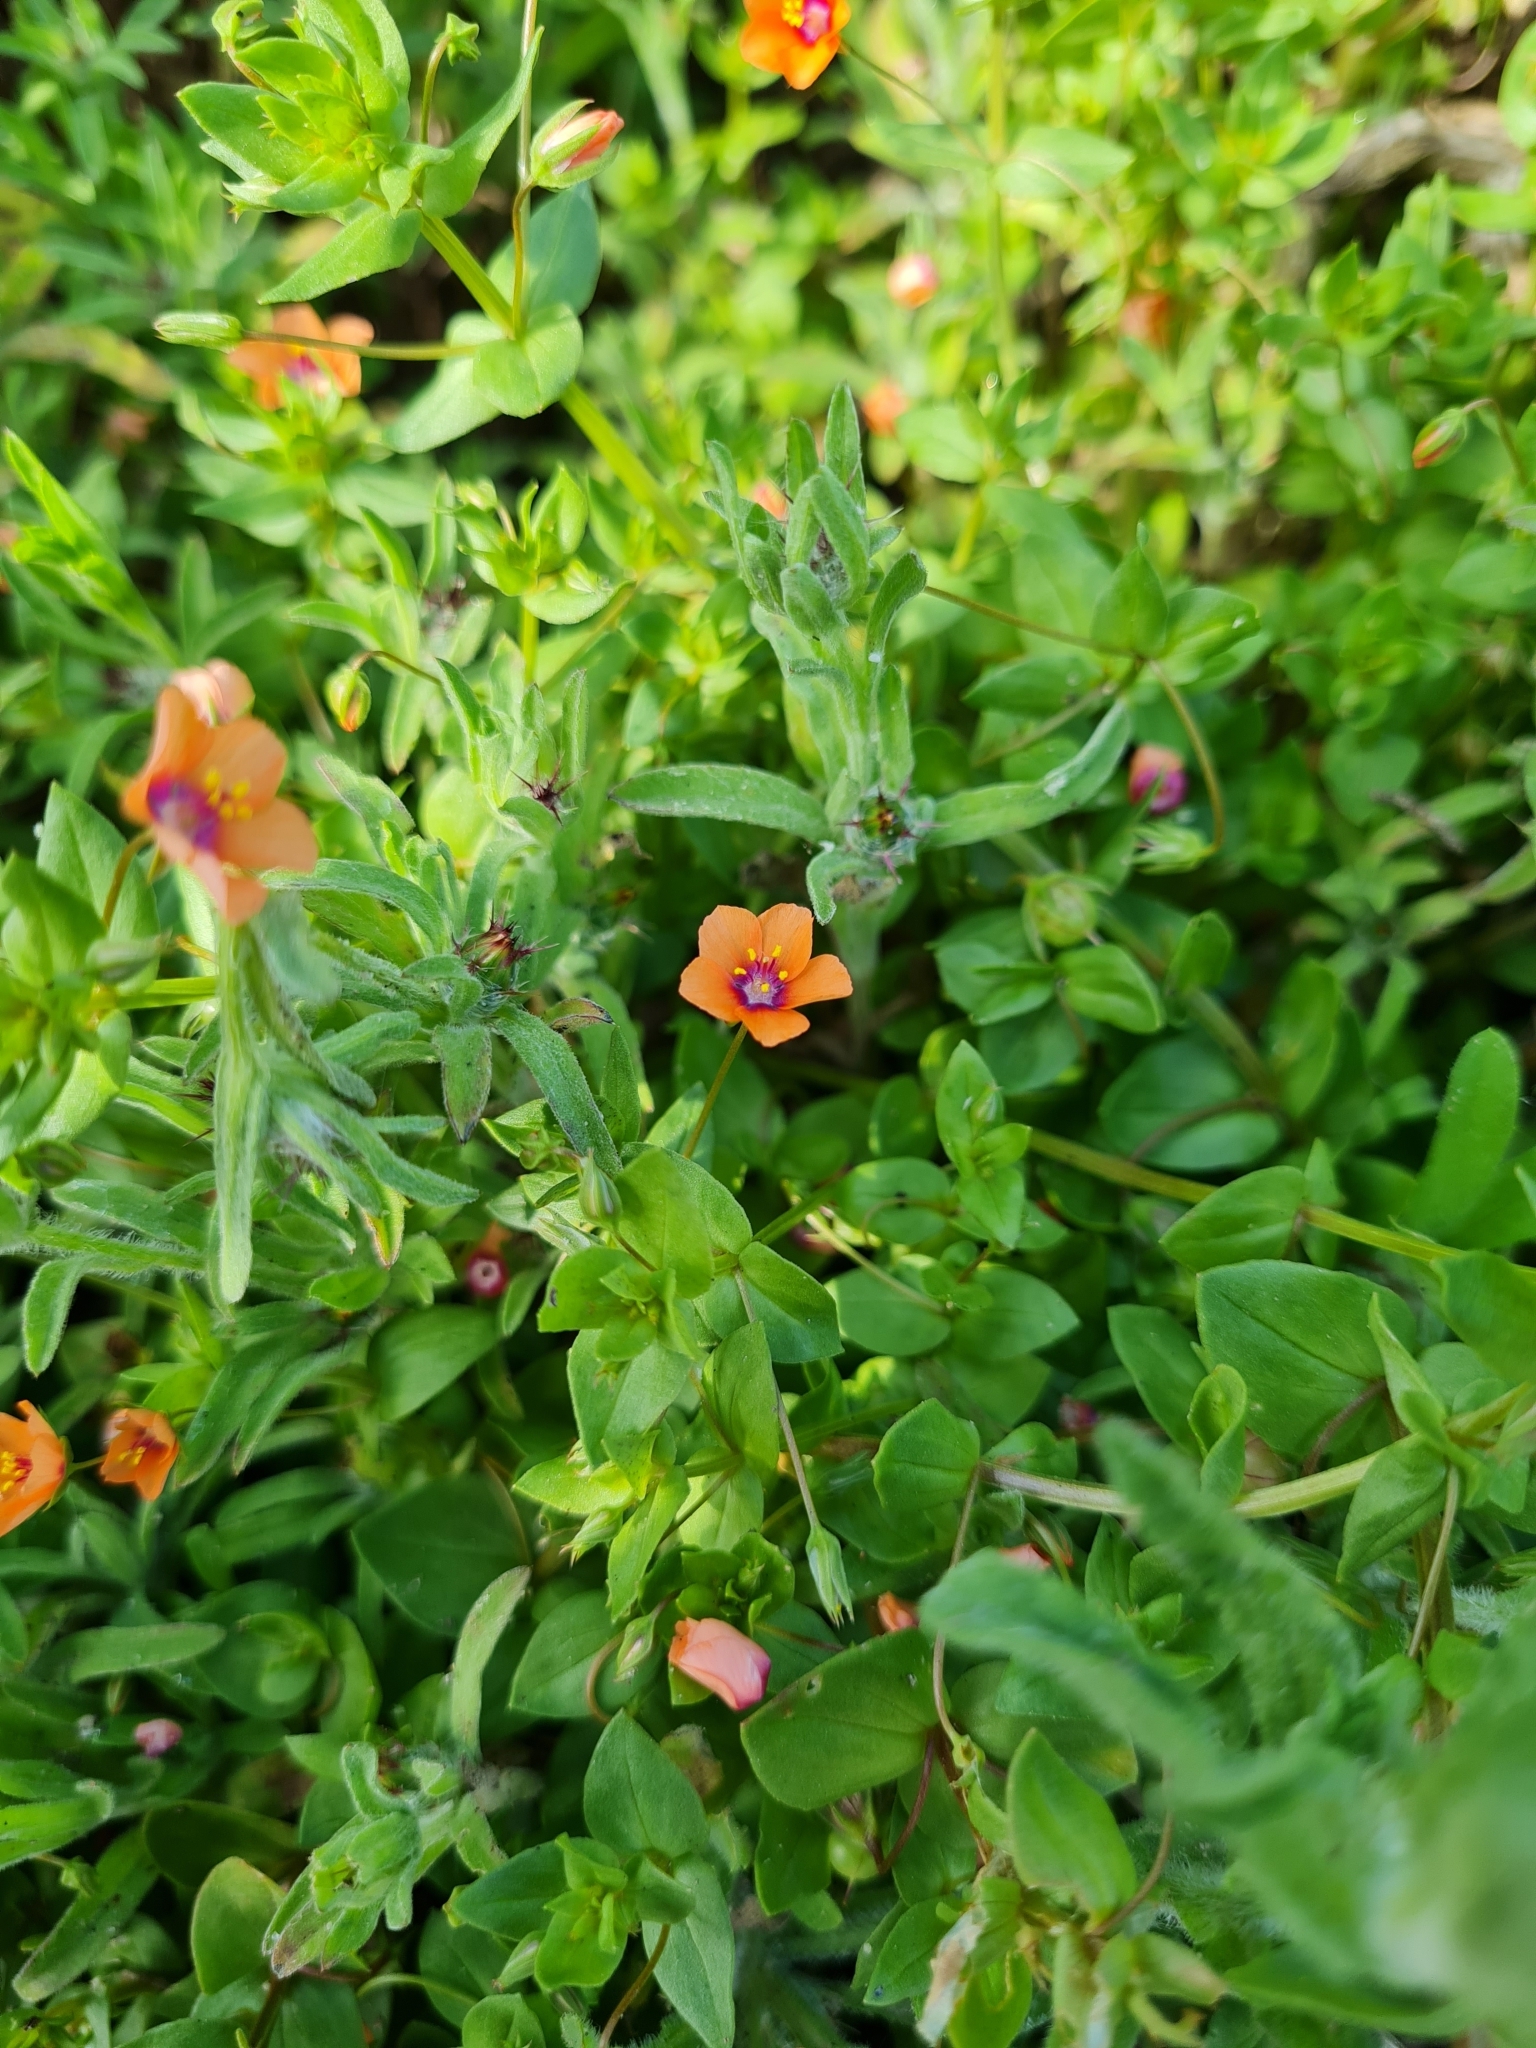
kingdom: Plantae
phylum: Tracheophyta
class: Magnoliopsida
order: Ericales
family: Primulaceae
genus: Lysimachia
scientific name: Lysimachia arvensis
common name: Scarlet pimpernel
